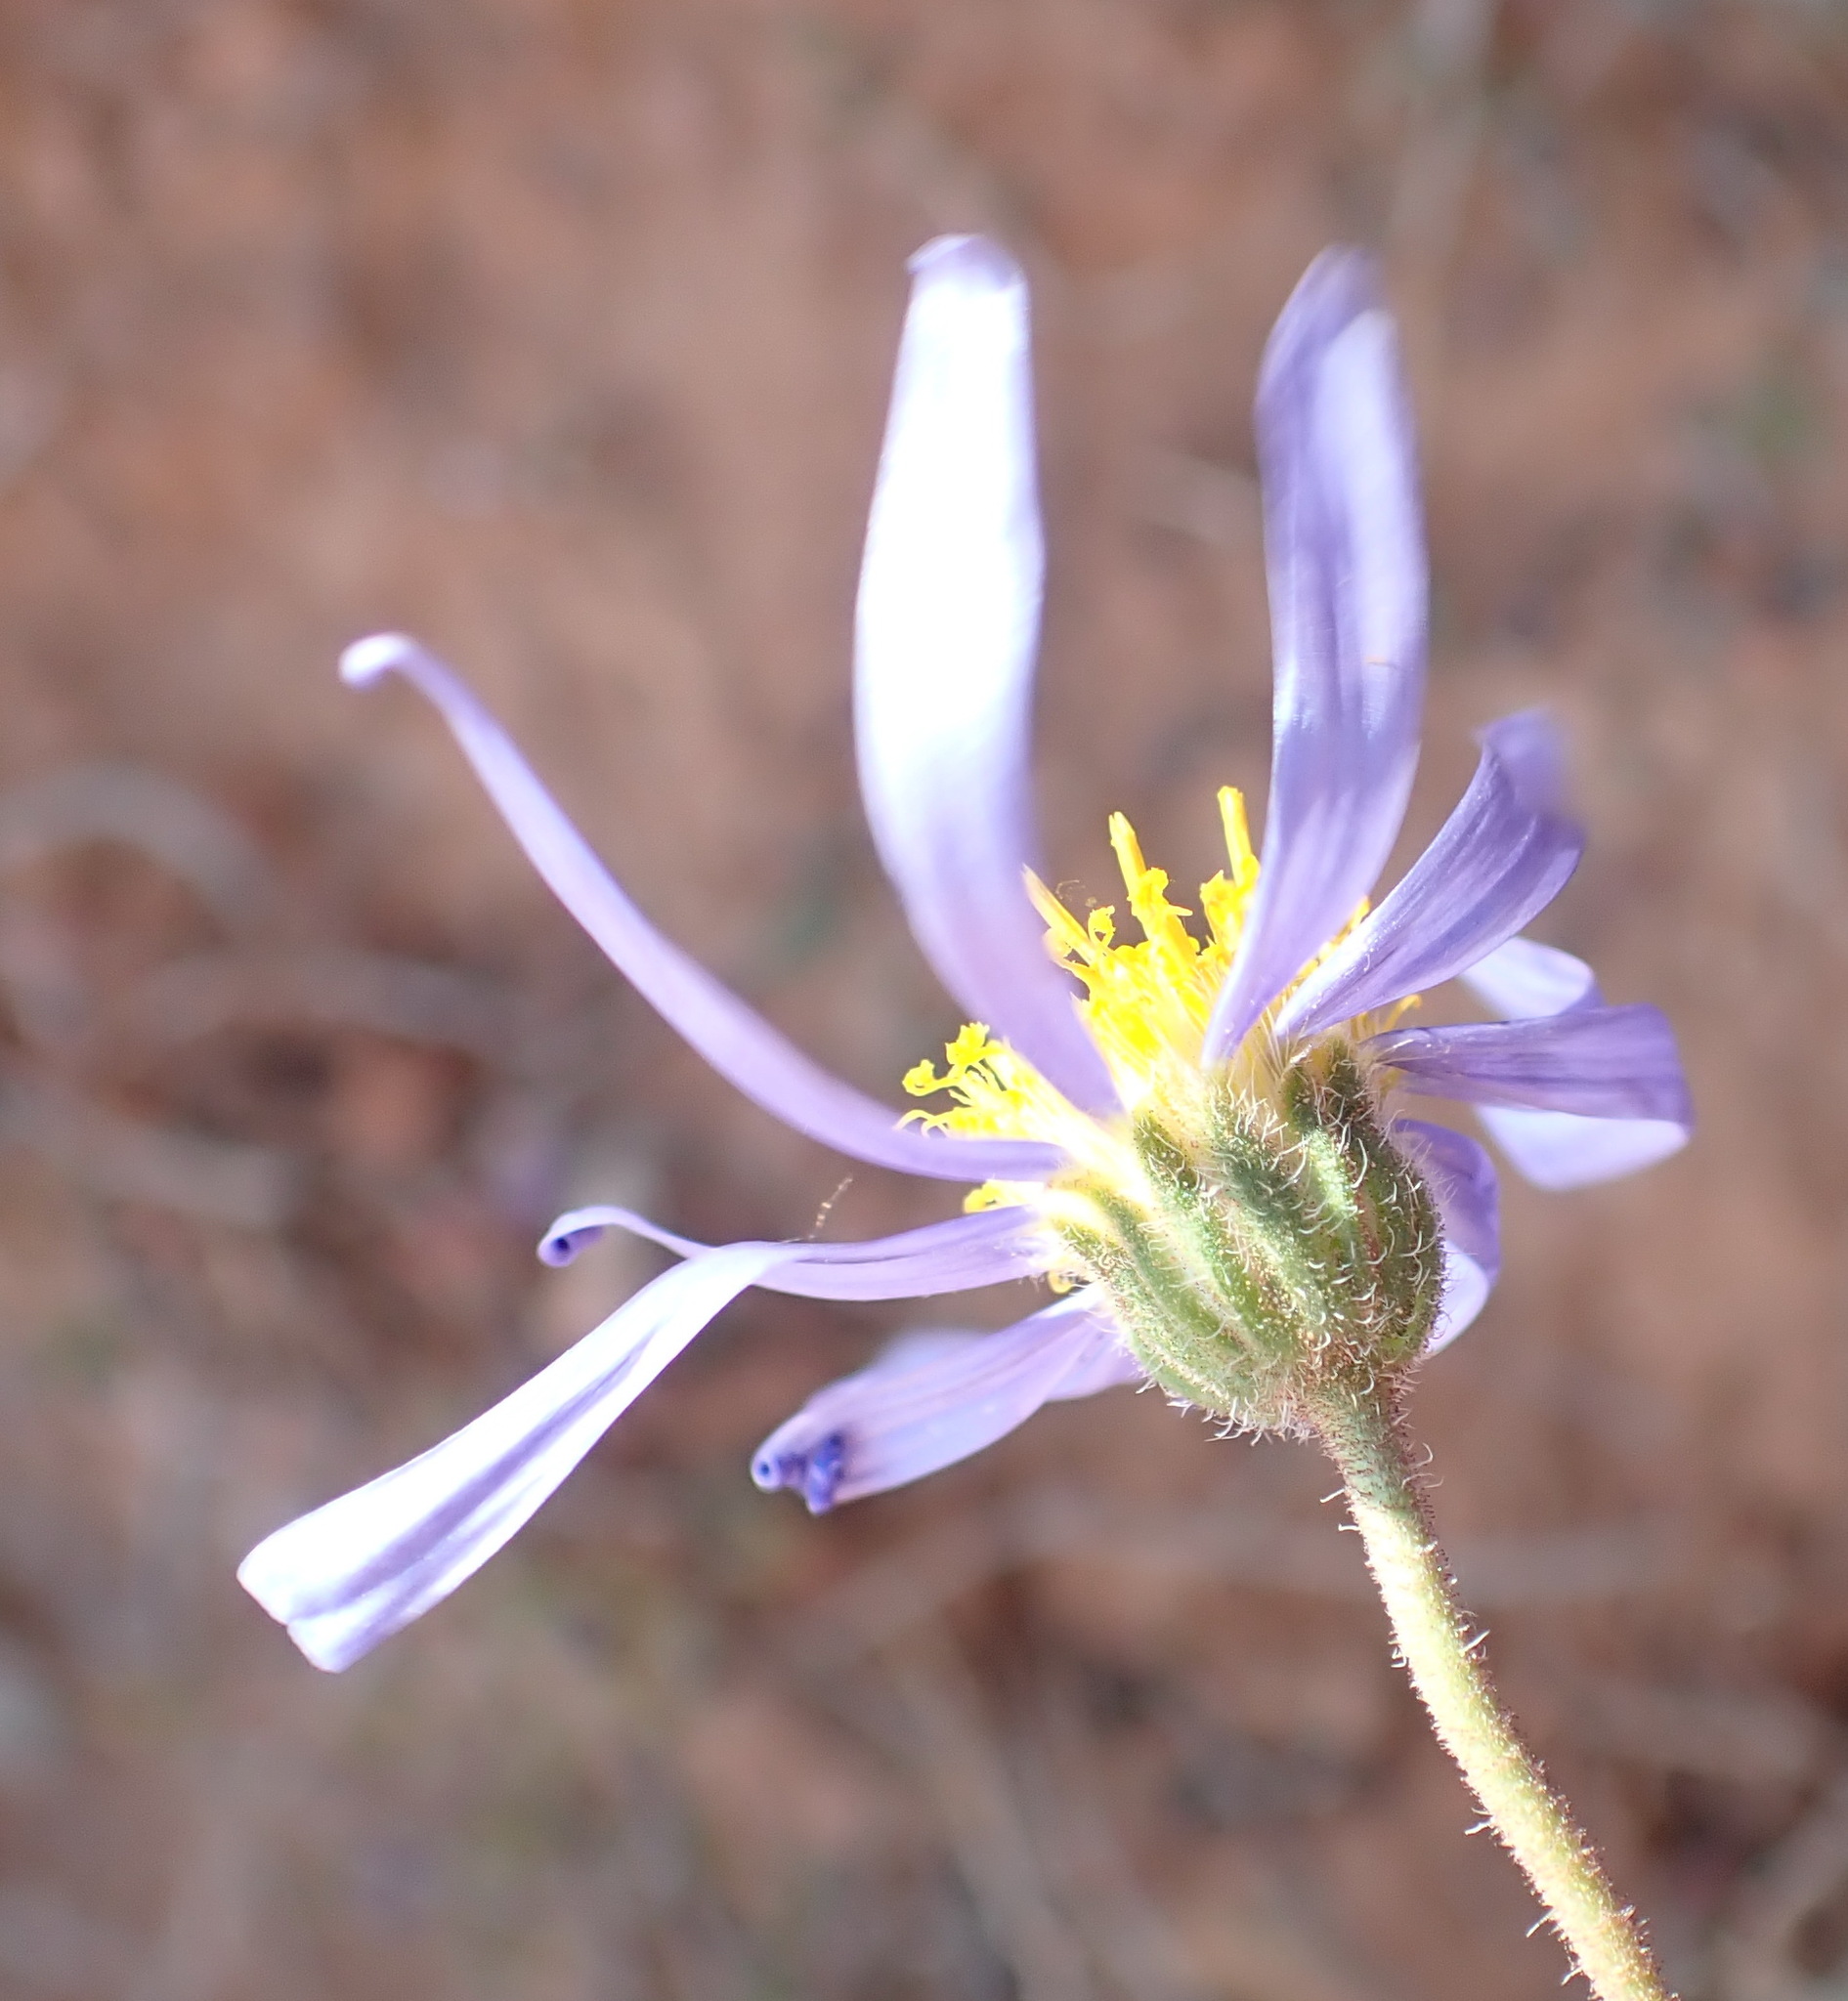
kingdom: Plantae
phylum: Tracheophyta
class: Magnoliopsida
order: Asterales
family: Asteraceae
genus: Felicia
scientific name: Felicia ovata
